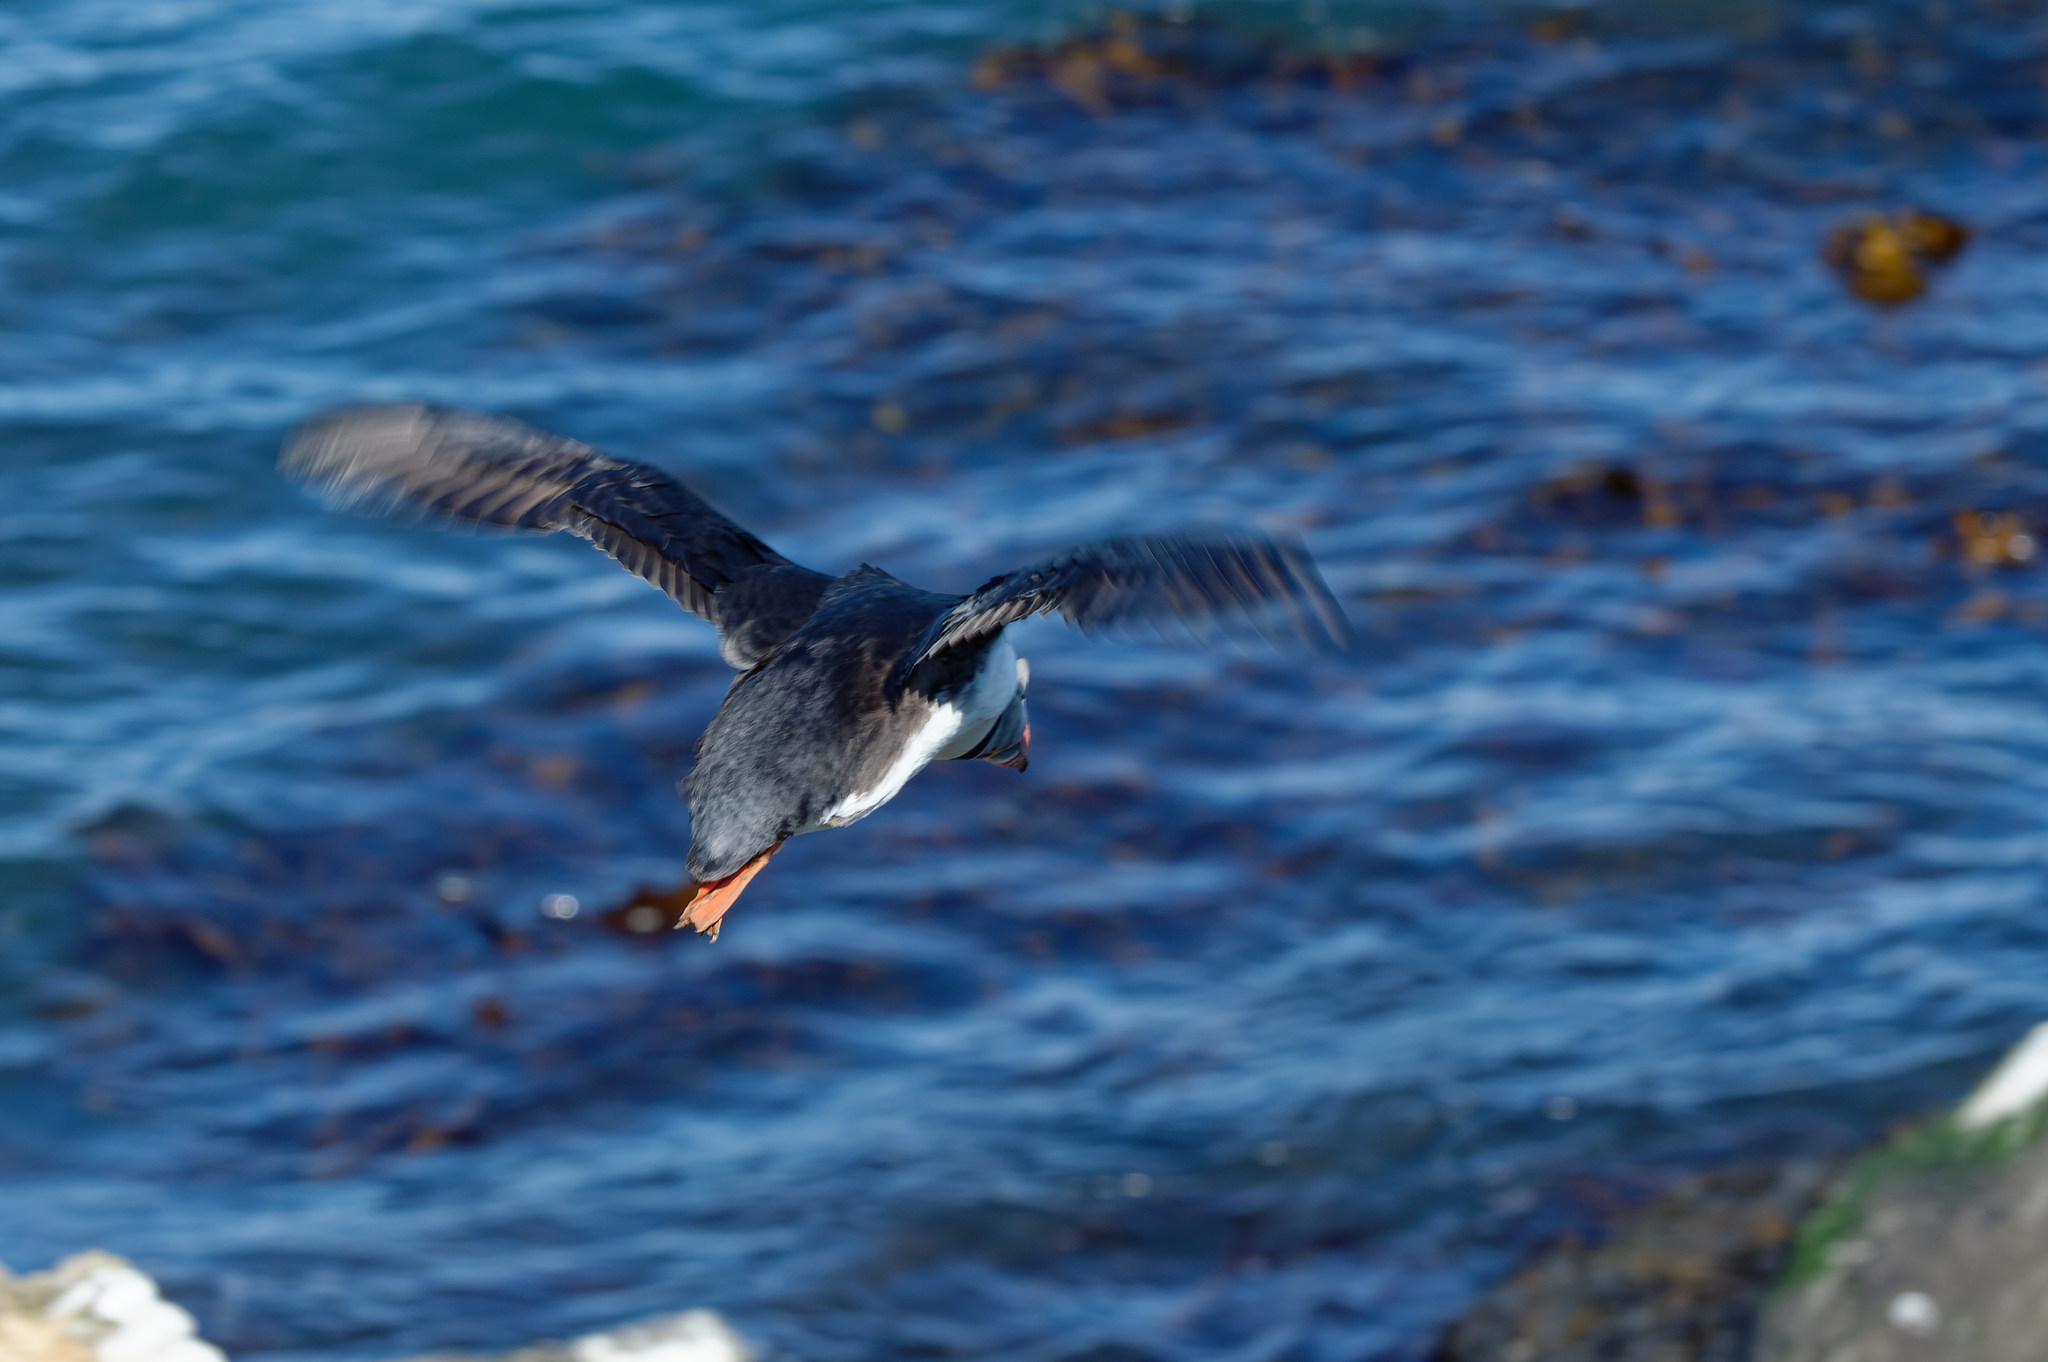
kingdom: Animalia
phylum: Chordata
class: Aves
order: Charadriiformes
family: Alcidae
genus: Fratercula
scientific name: Fratercula arctica
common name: Atlantic puffin
